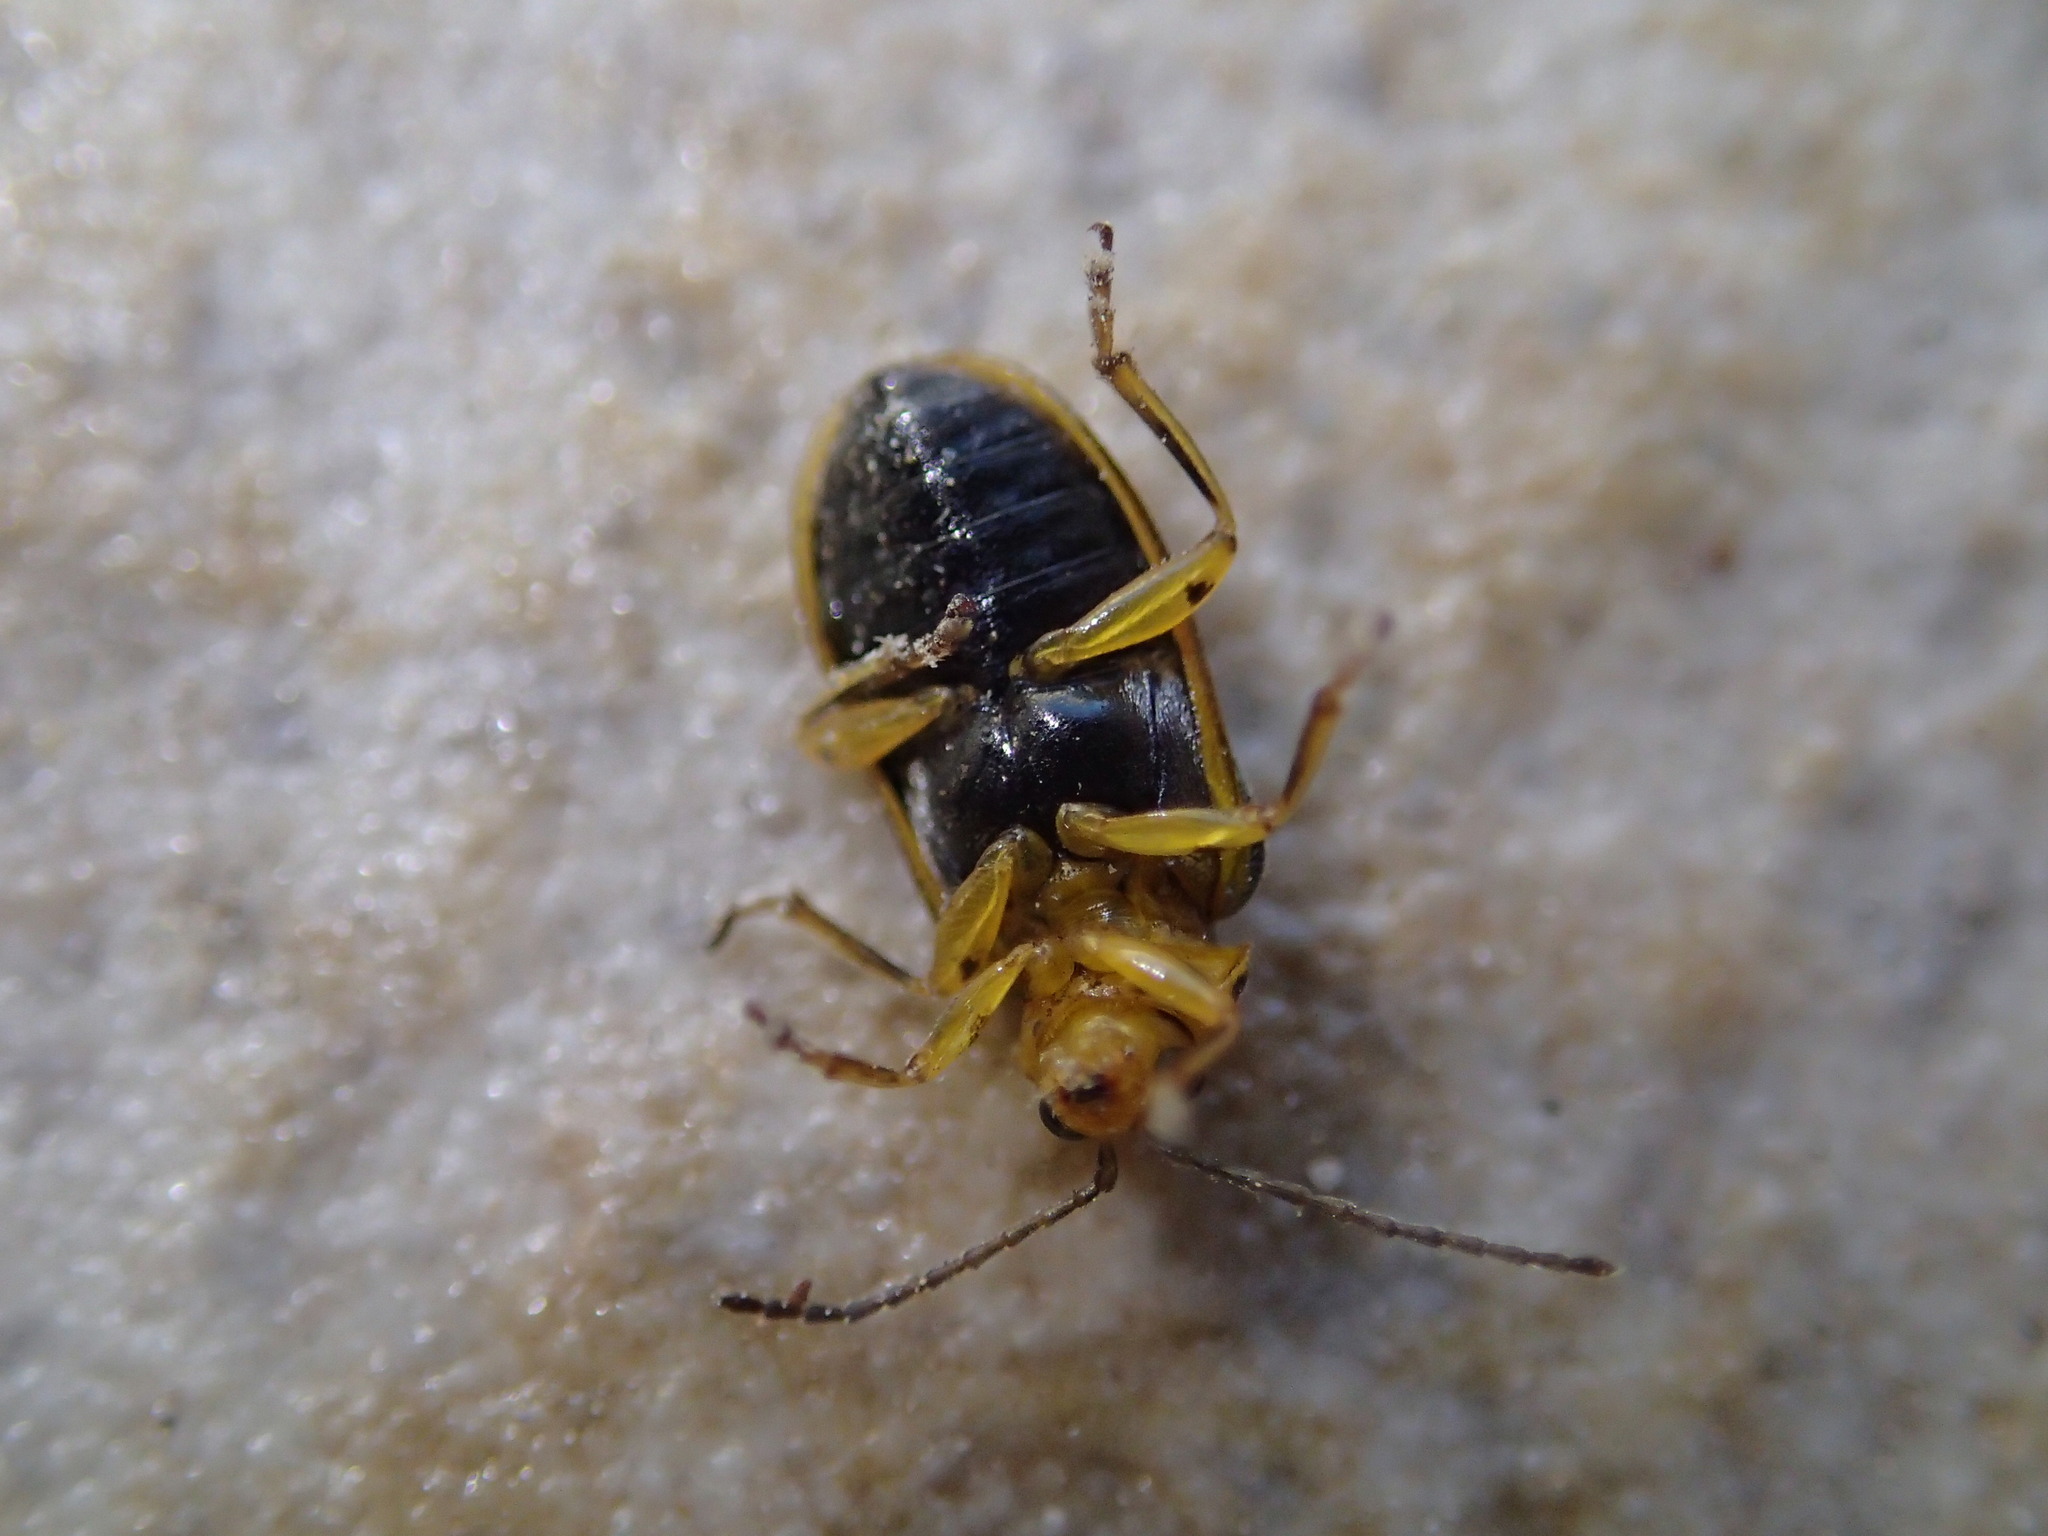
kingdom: Animalia
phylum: Arthropoda
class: Insecta
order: Coleoptera
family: Chrysomelidae
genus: Xanthogaleruca
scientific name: Xanthogaleruca luteola
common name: Elm leaf beetle
